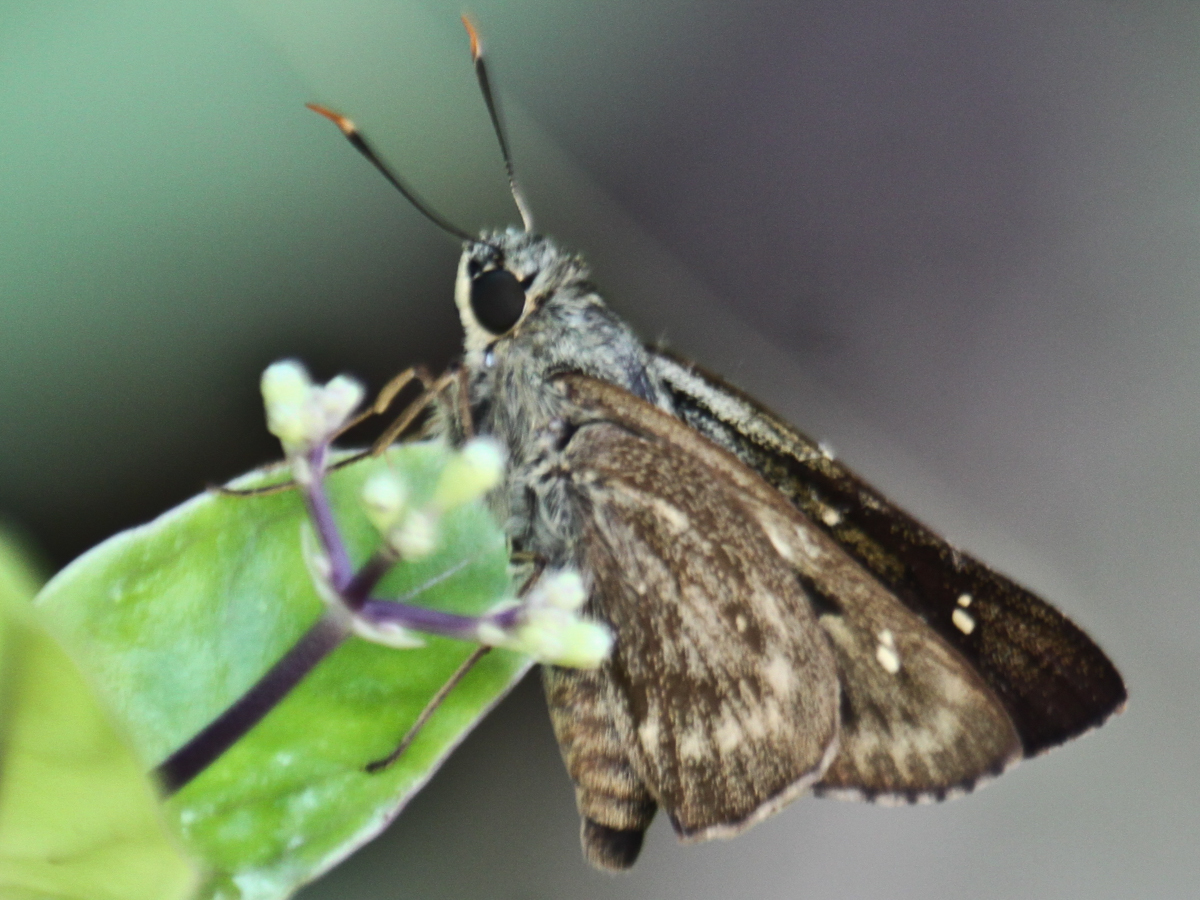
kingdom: Animalia
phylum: Arthropoda
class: Insecta
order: Lepidoptera
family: Hesperiidae
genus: Pithauria
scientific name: Pithauria stramineipennis
